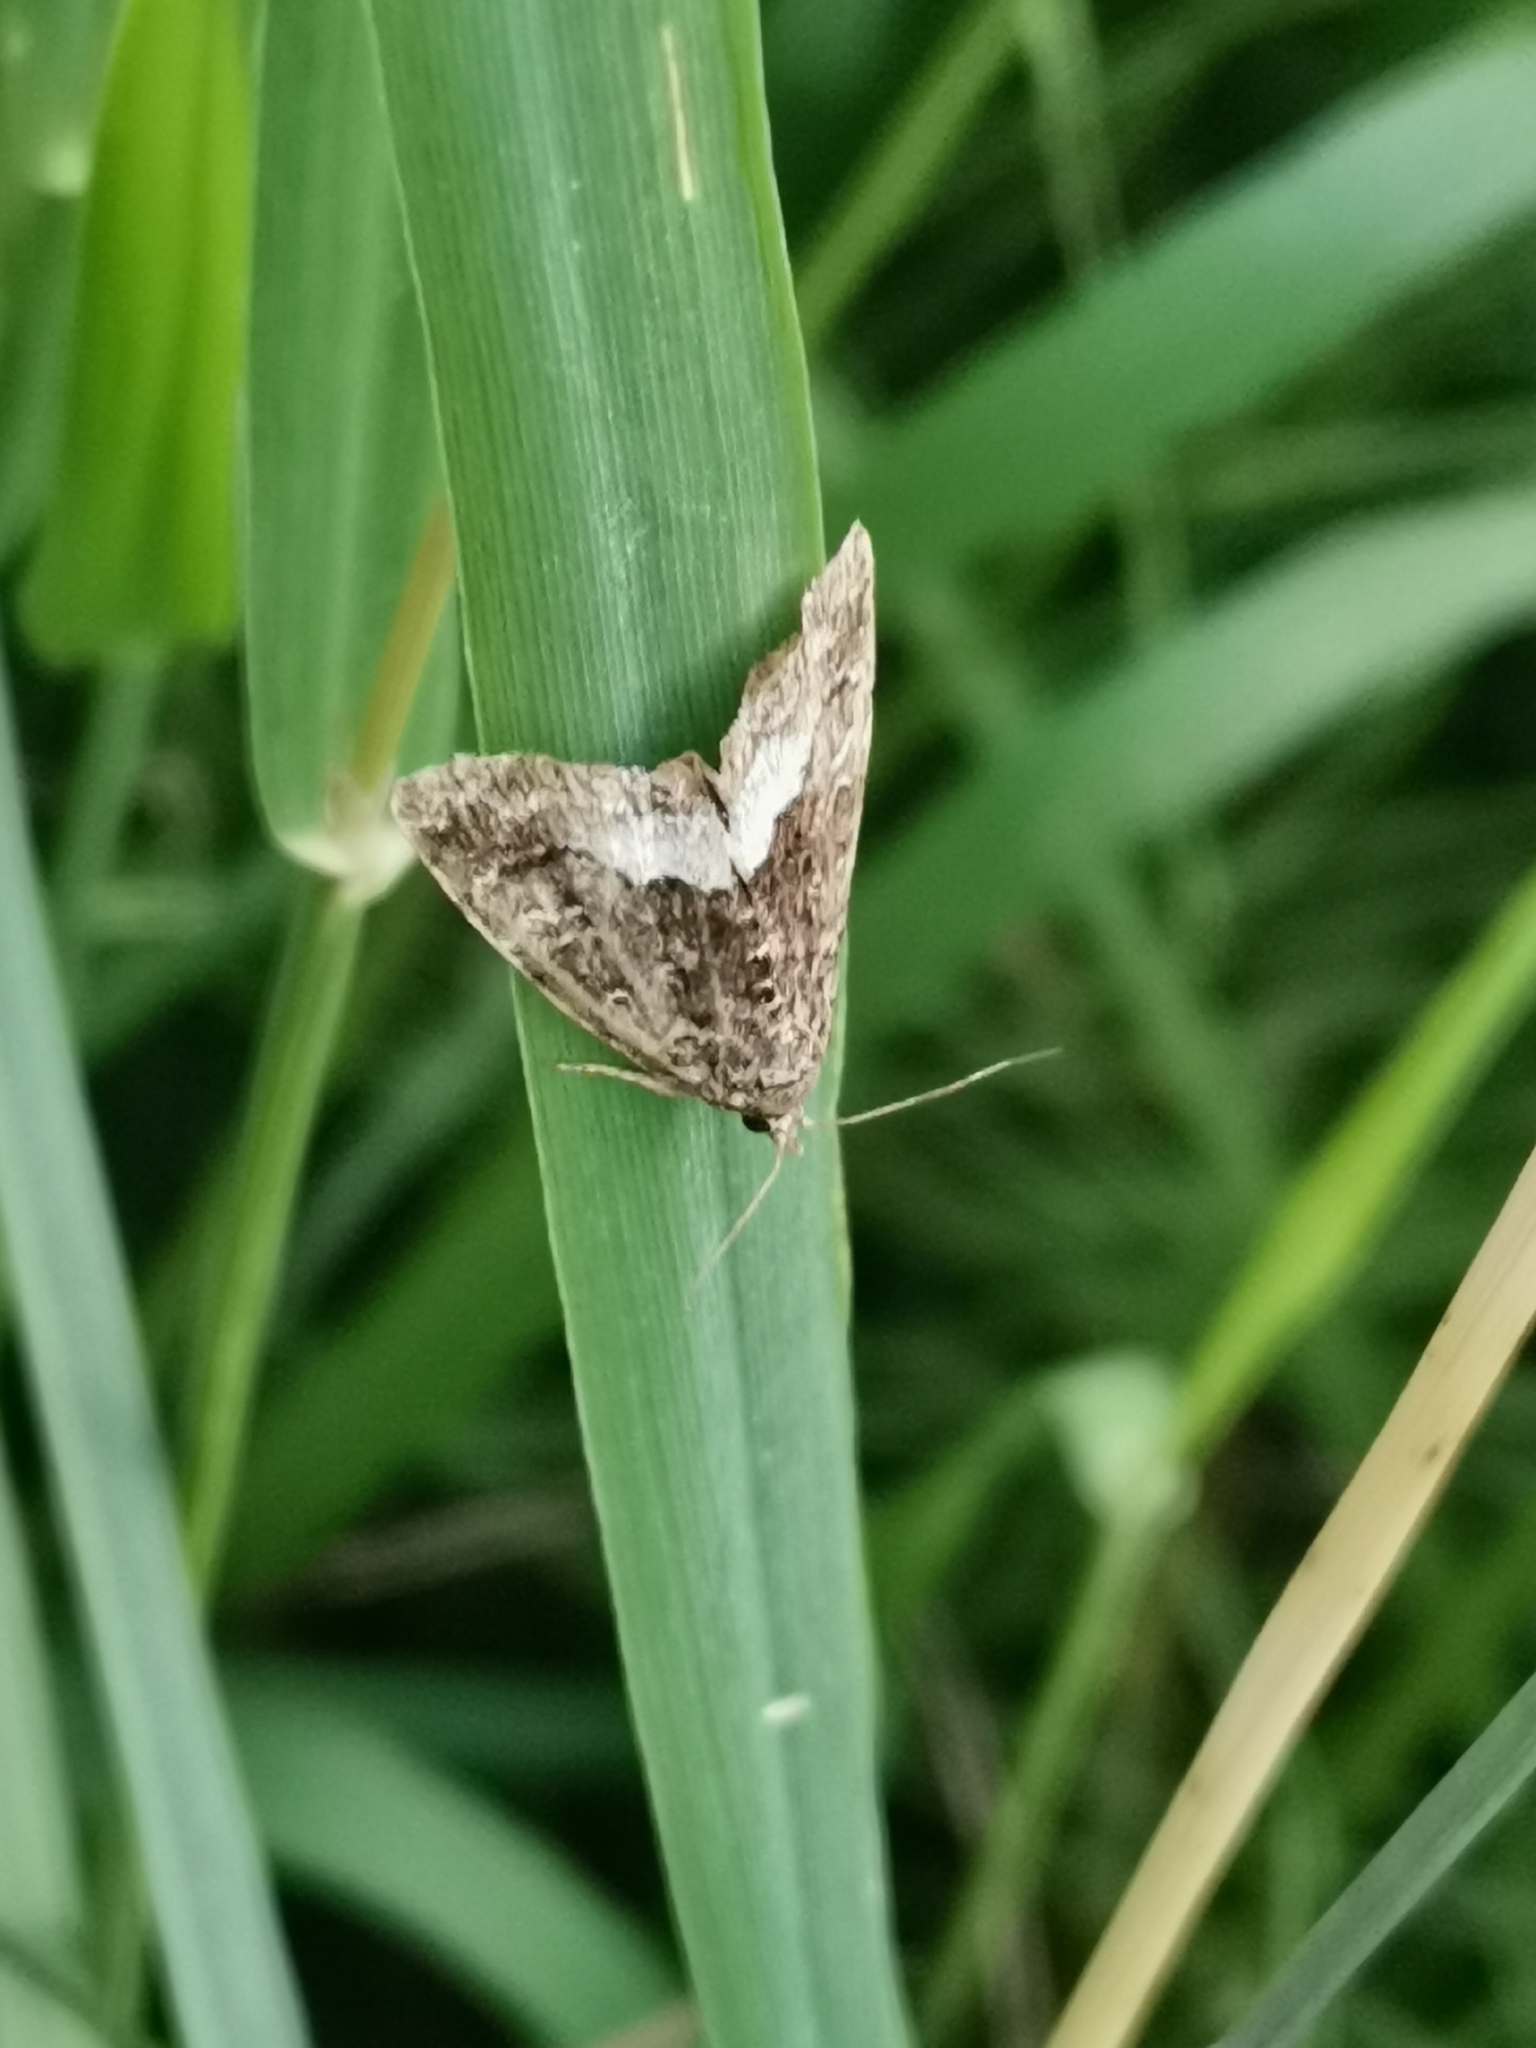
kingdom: Animalia
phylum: Arthropoda
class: Insecta
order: Lepidoptera
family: Noctuidae
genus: Deltote
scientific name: Deltote pygarga
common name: Marbled white spot
